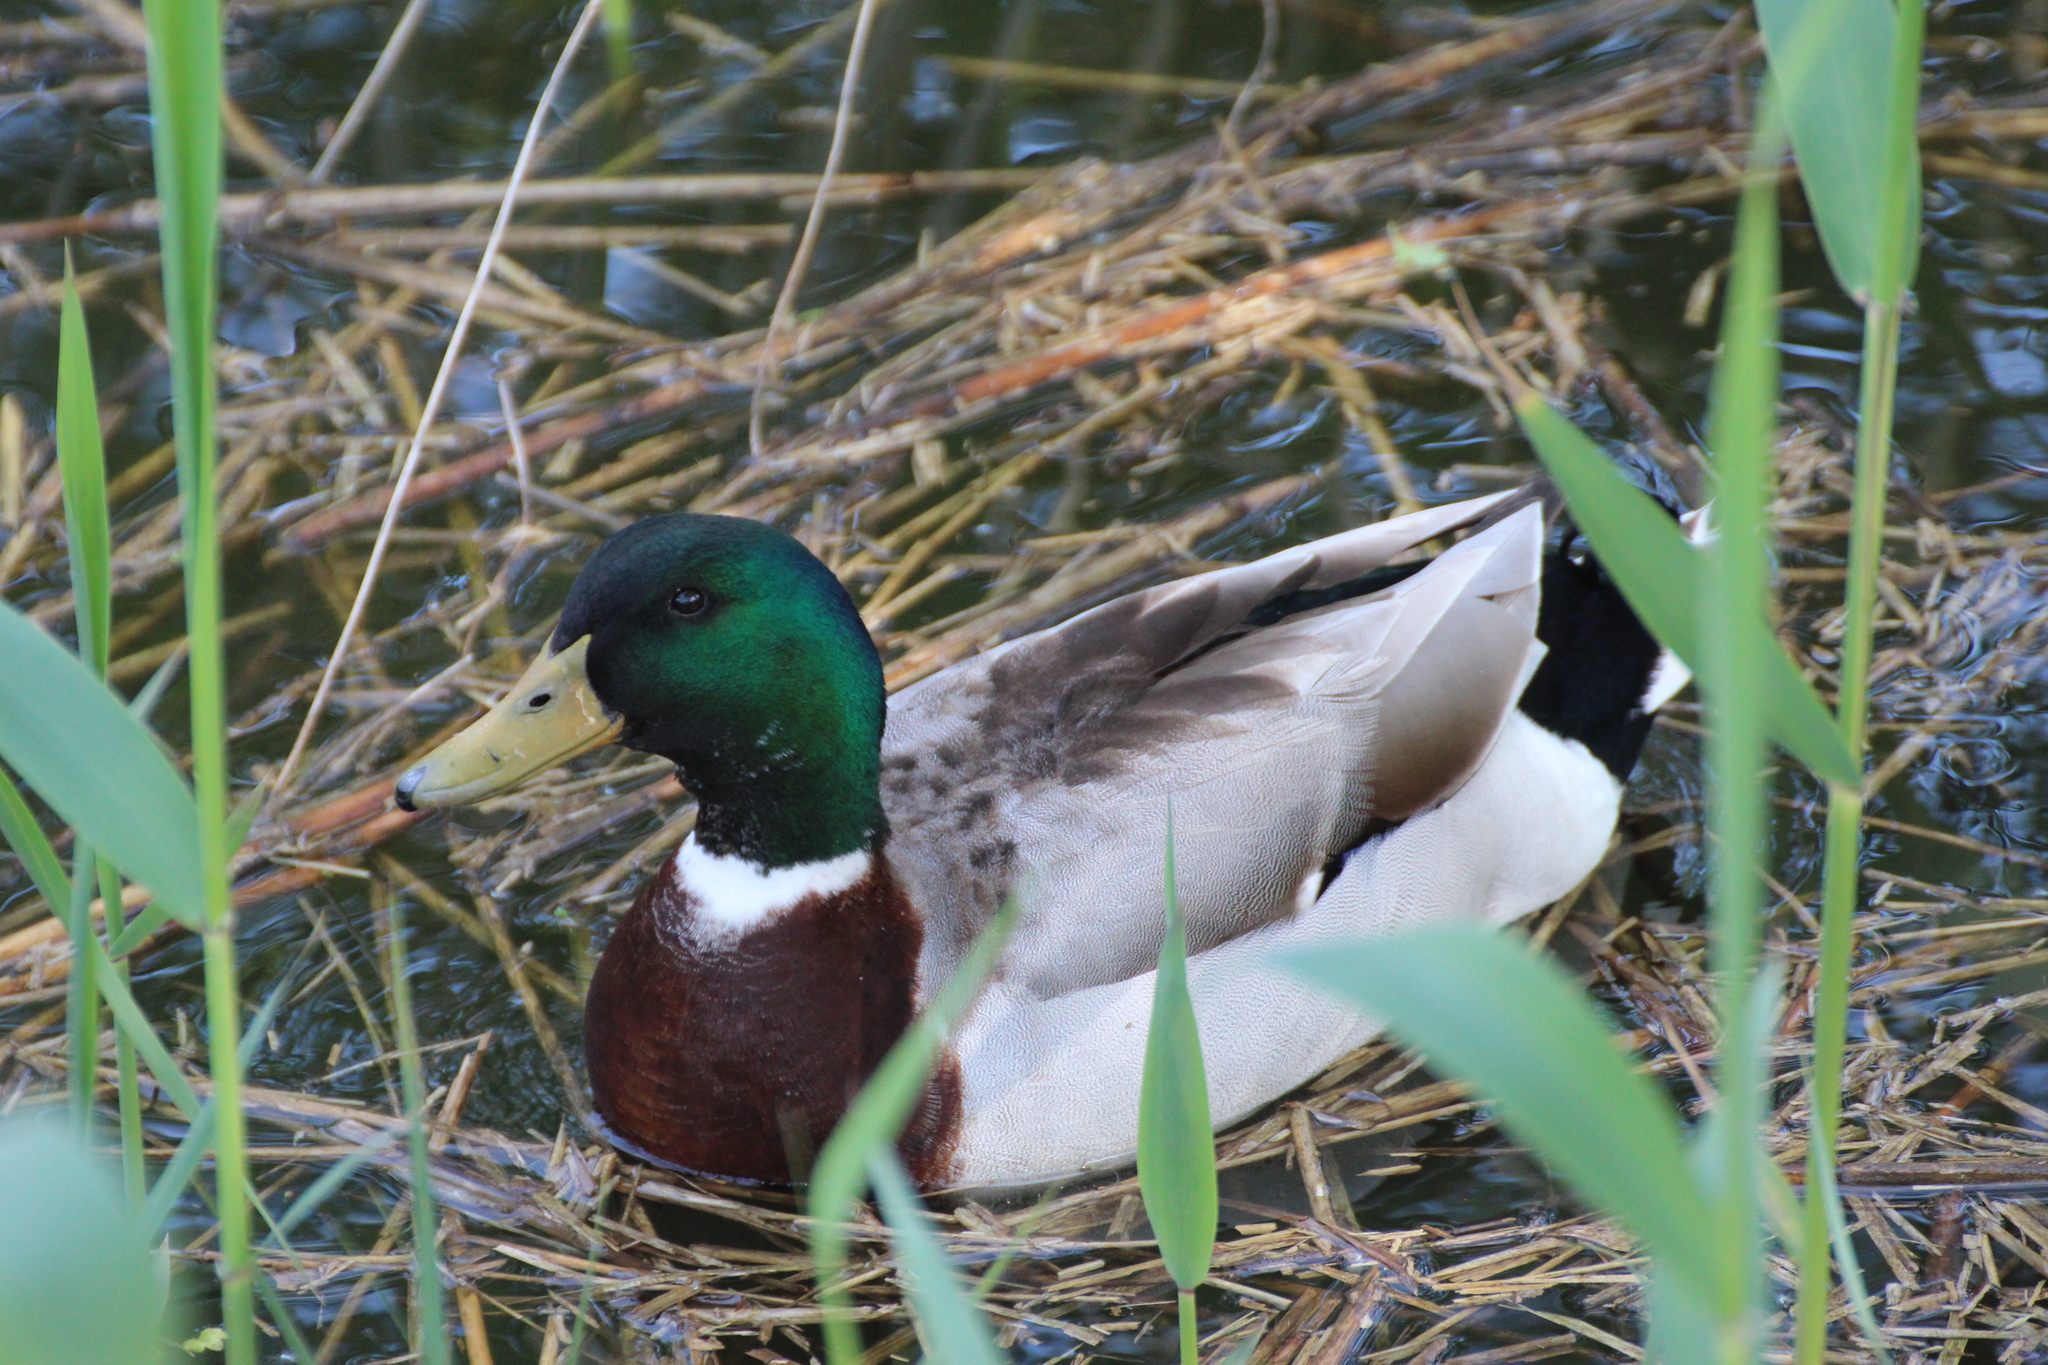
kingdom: Animalia
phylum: Chordata
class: Aves
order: Anseriformes
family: Anatidae
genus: Anas
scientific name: Anas platyrhynchos
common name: Mallard
